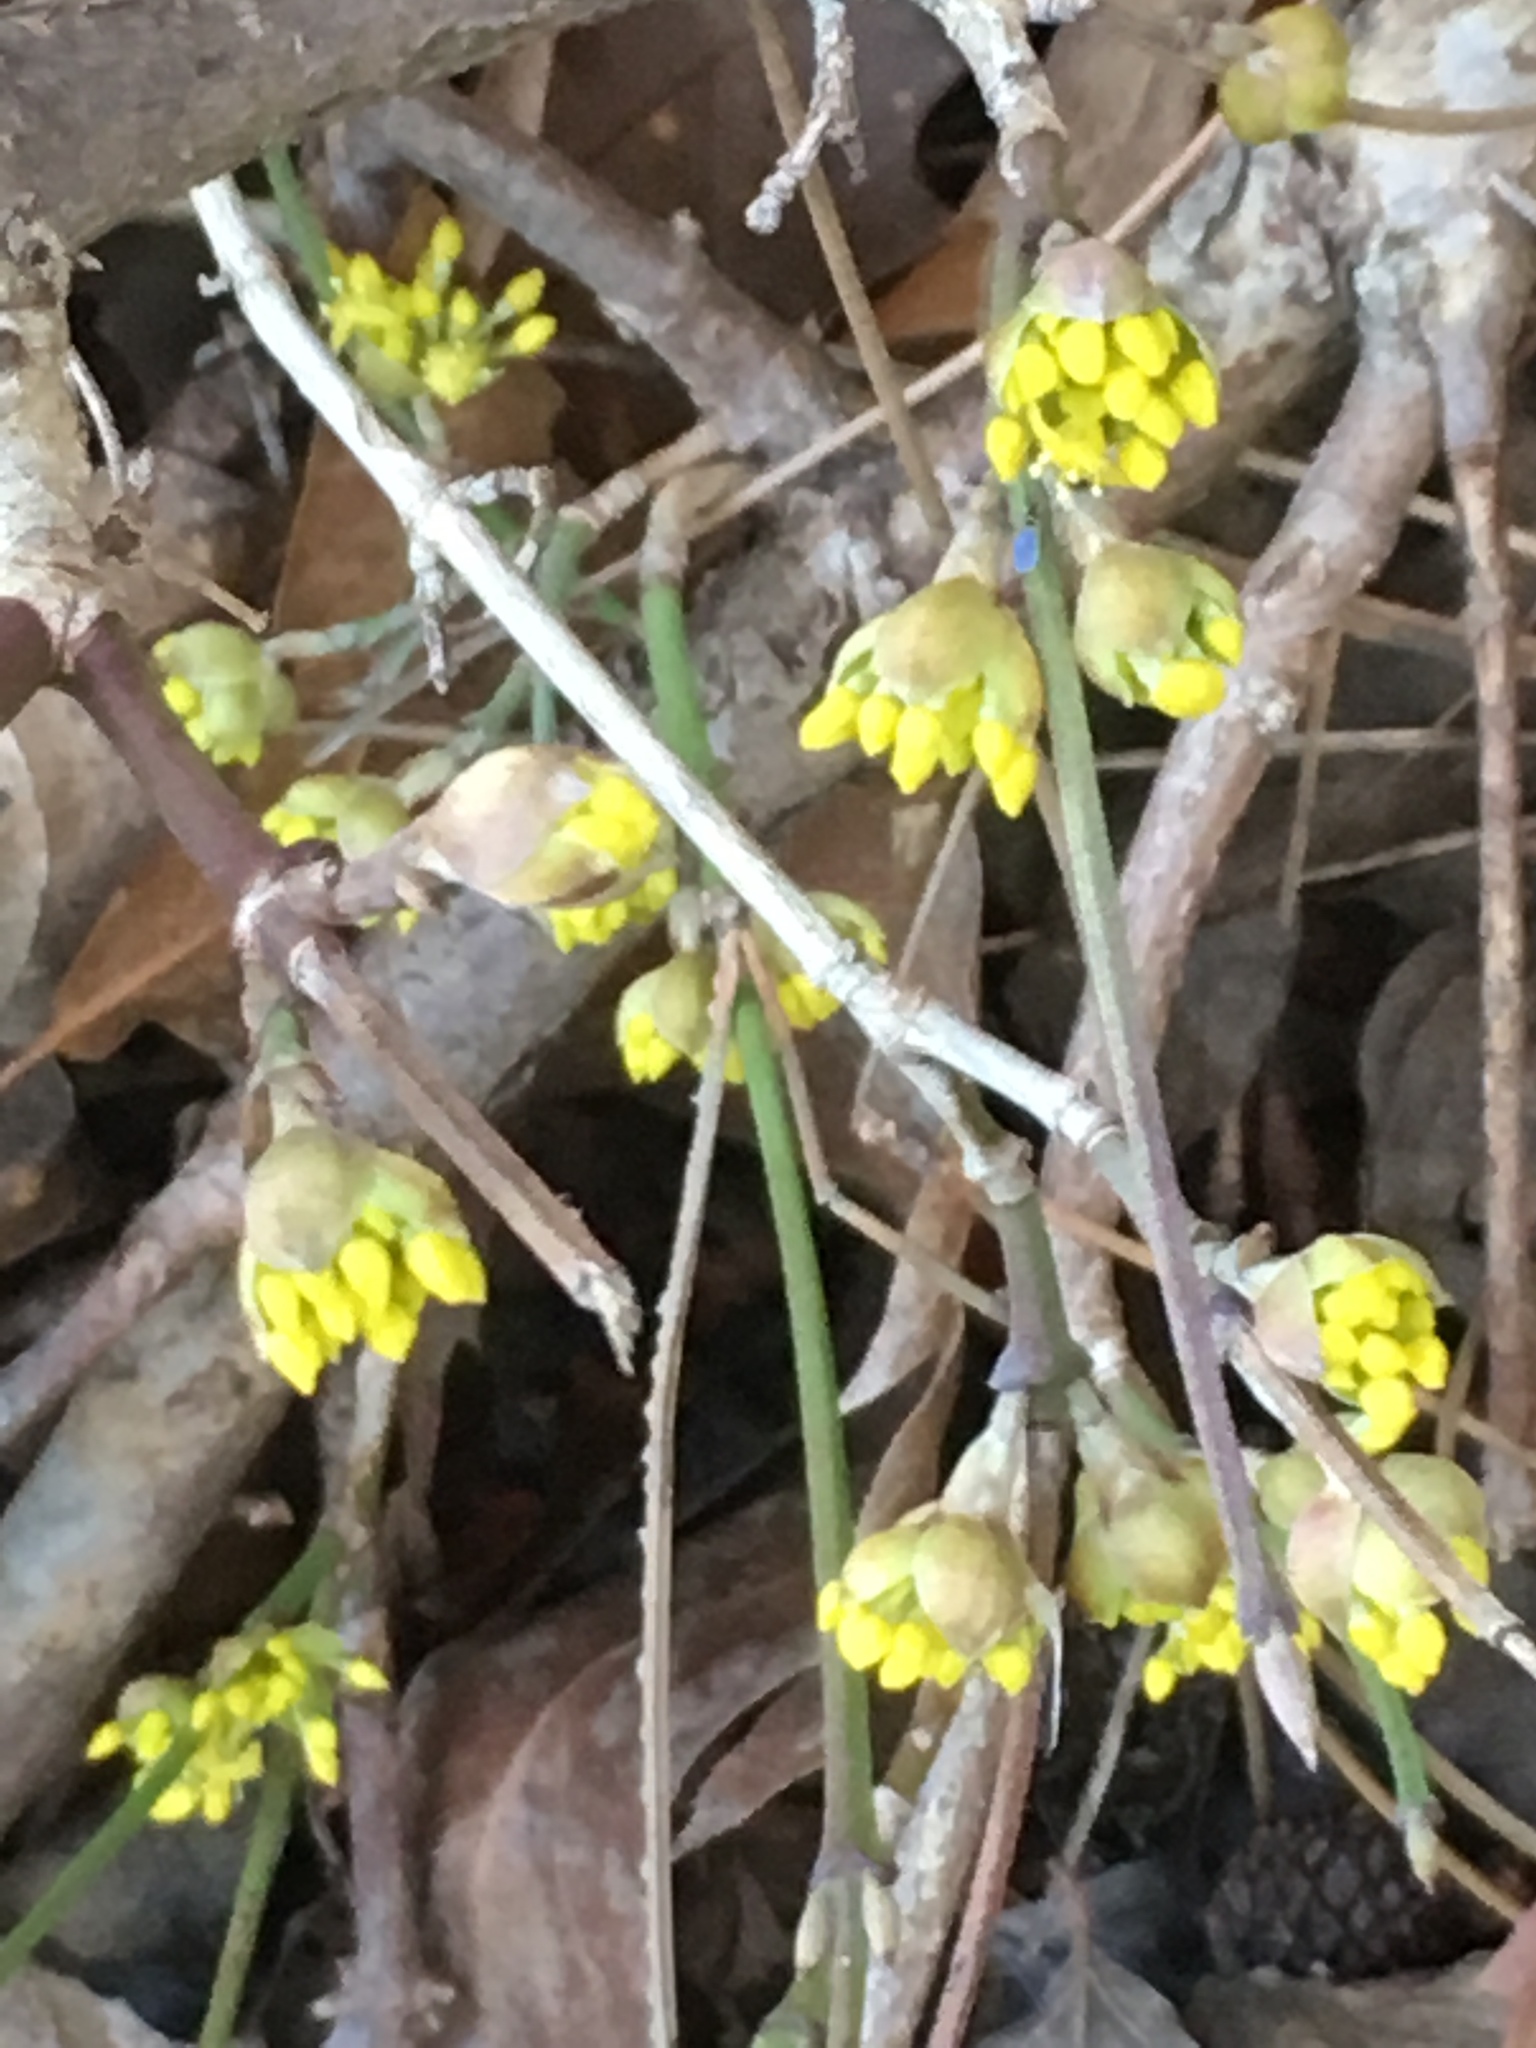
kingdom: Plantae
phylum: Tracheophyta
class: Magnoliopsida
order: Cornales
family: Cornaceae
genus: Cornus
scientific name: Cornus mas
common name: Cornelian-cherry
